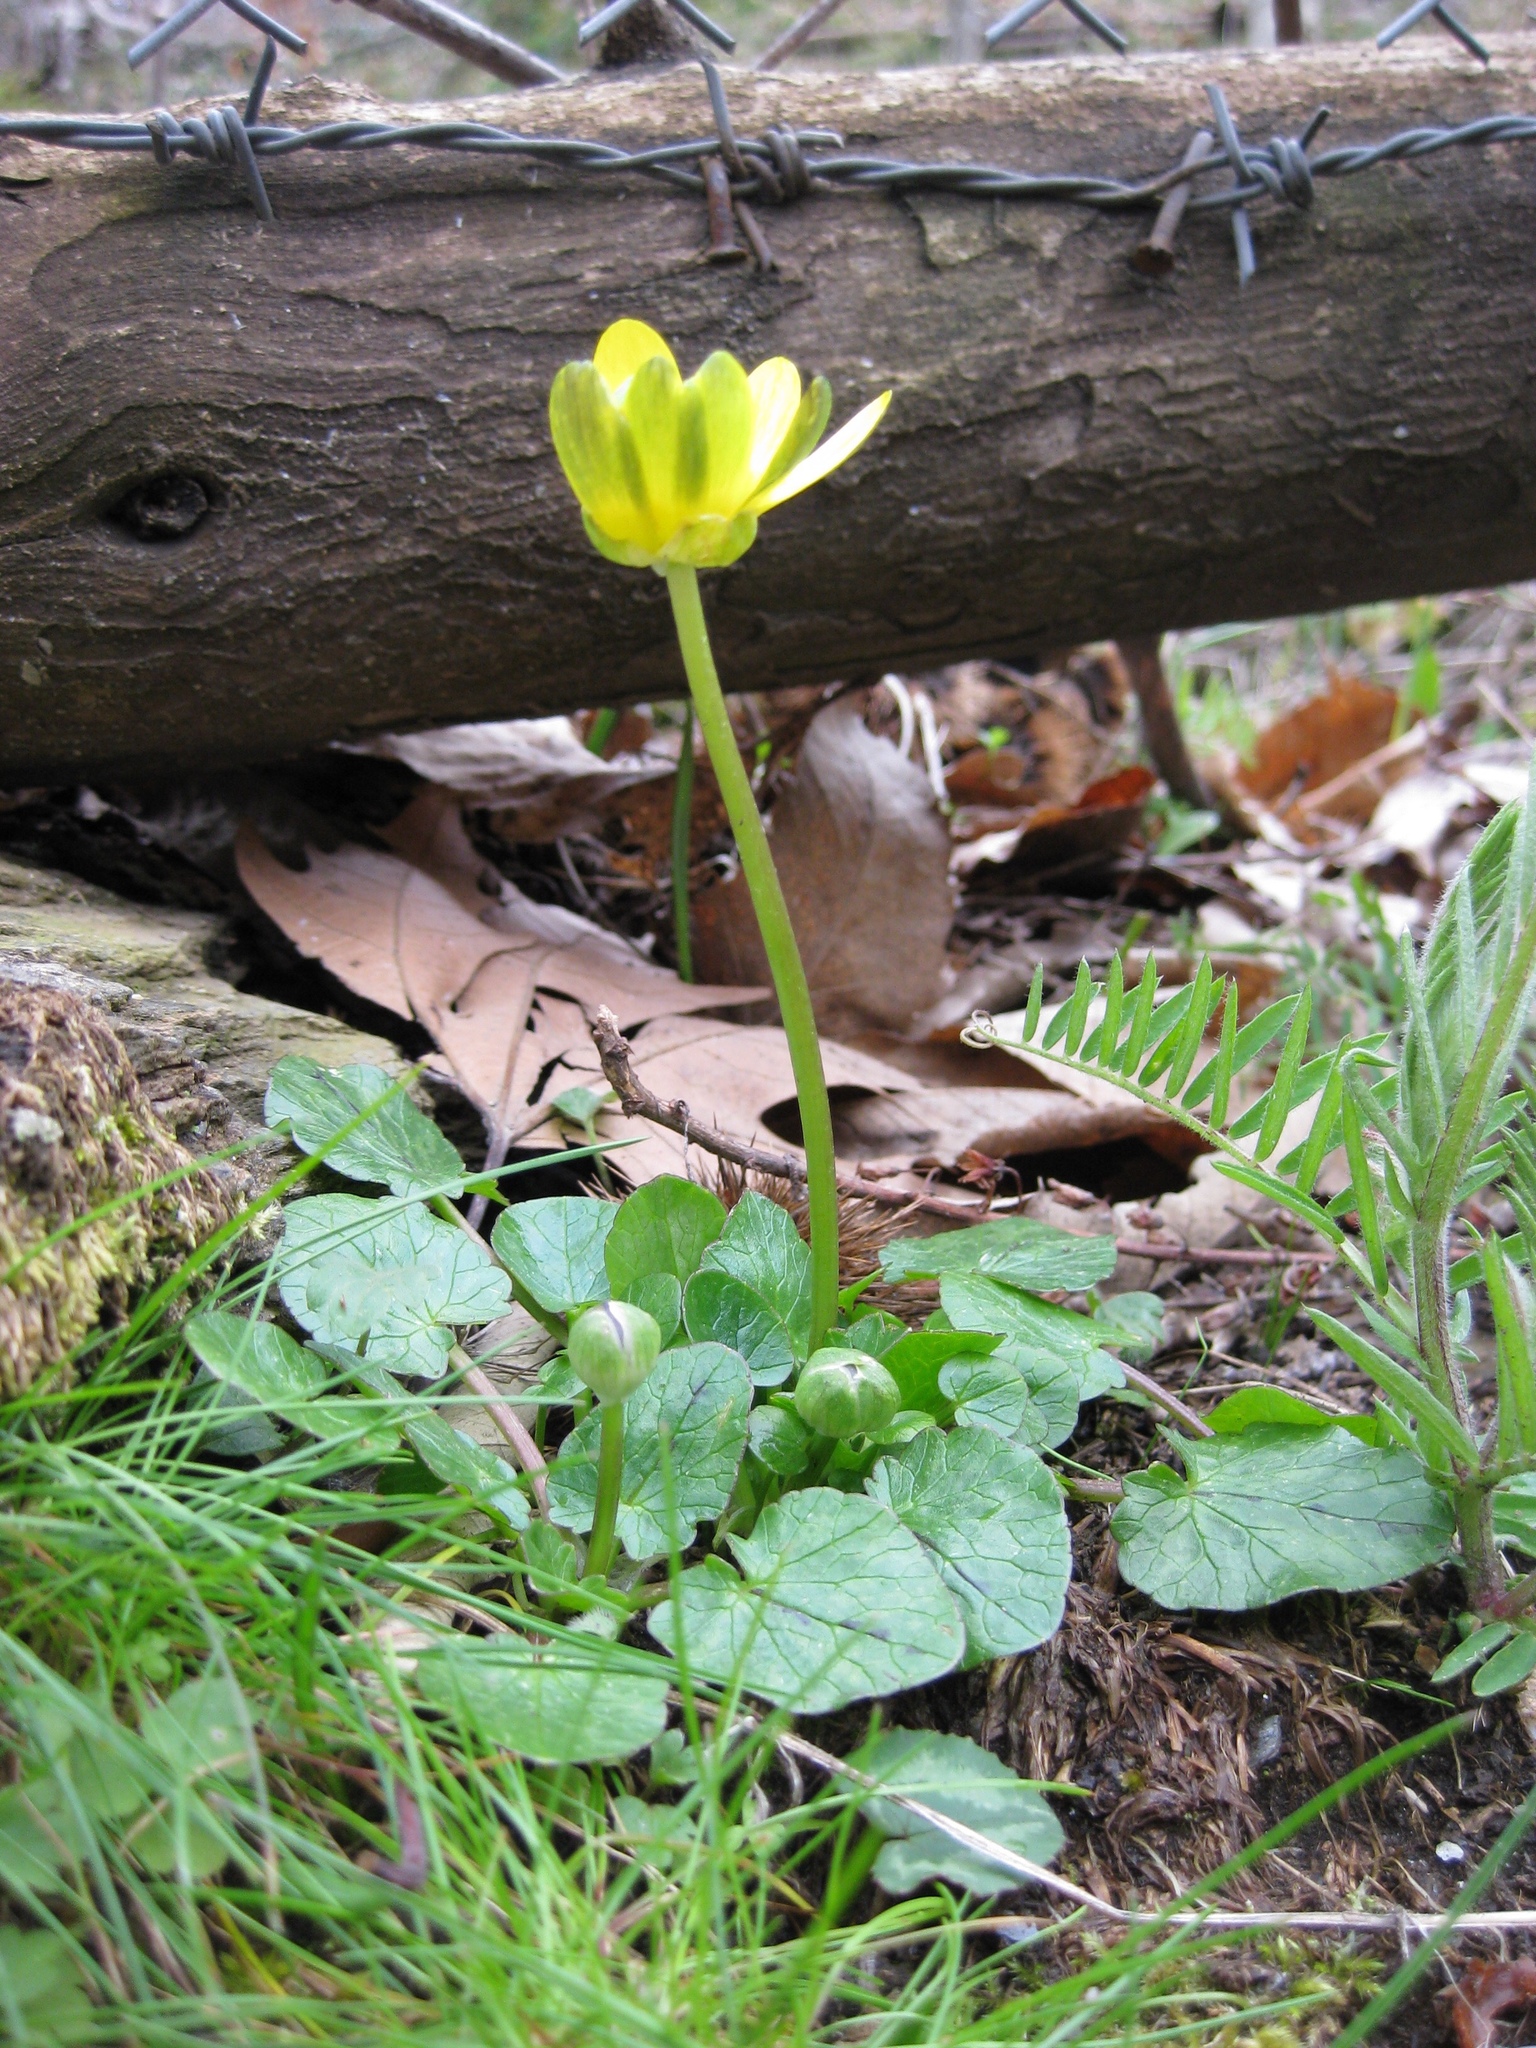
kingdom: Plantae
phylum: Tracheophyta
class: Magnoliopsida
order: Ranunculales
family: Ranunculaceae
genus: Ficaria
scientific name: Ficaria verna
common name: Lesser celandine
